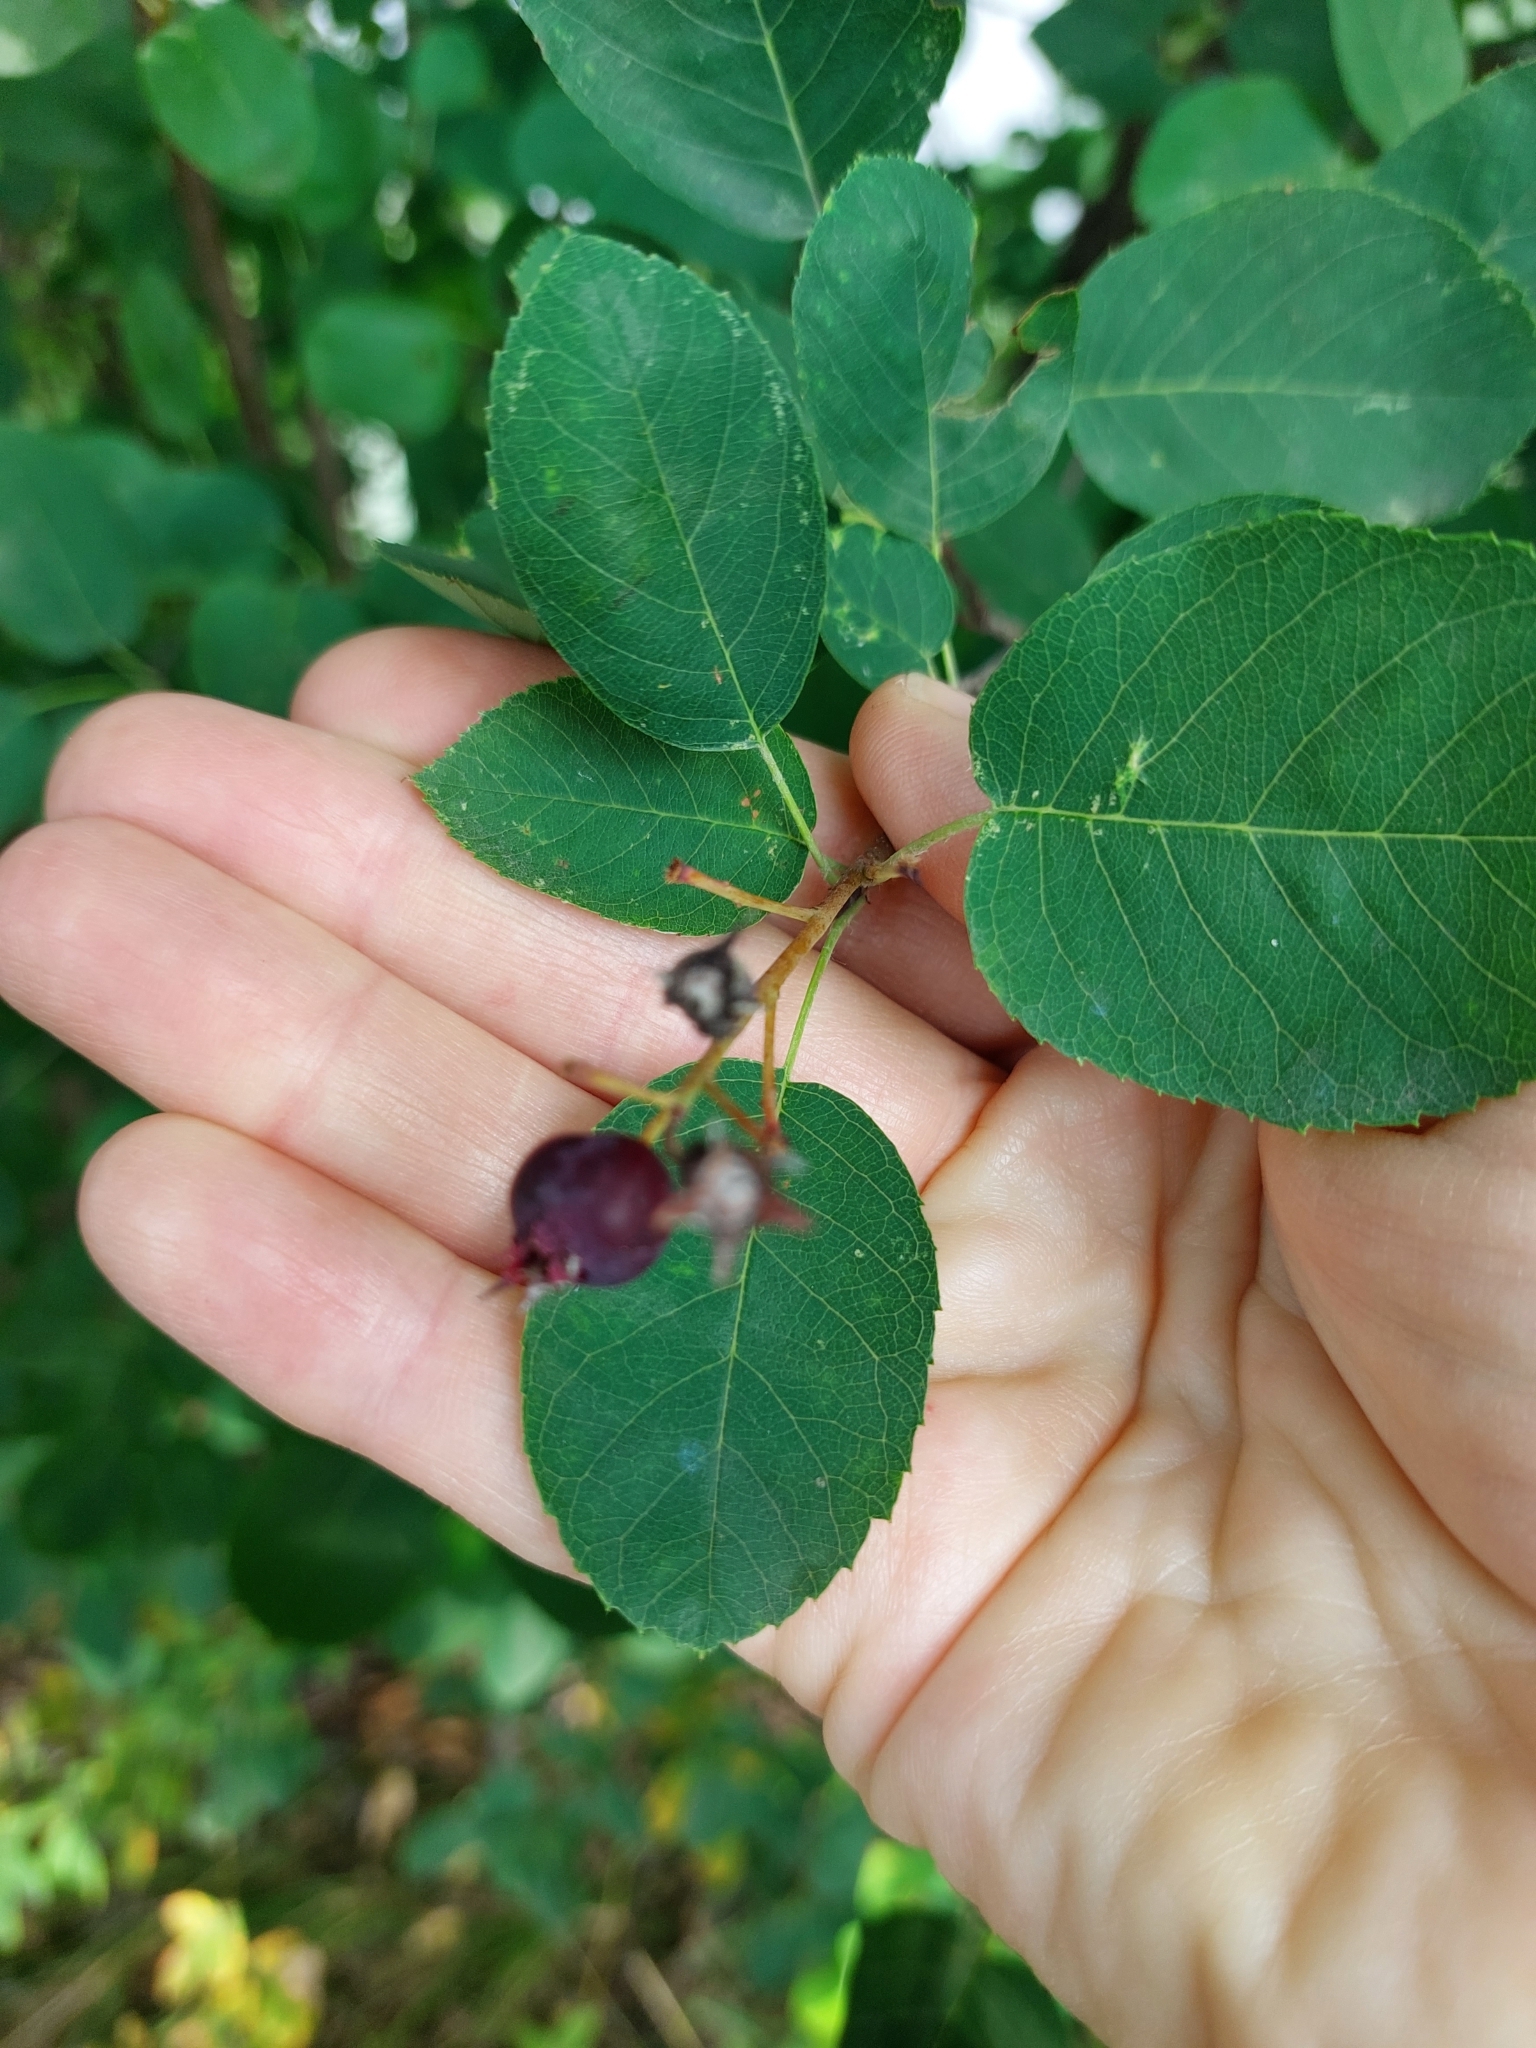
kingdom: Plantae
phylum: Tracheophyta
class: Magnoliopsida
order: Rosales
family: Rosaceae
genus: Amelanchier
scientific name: Amelanchier
